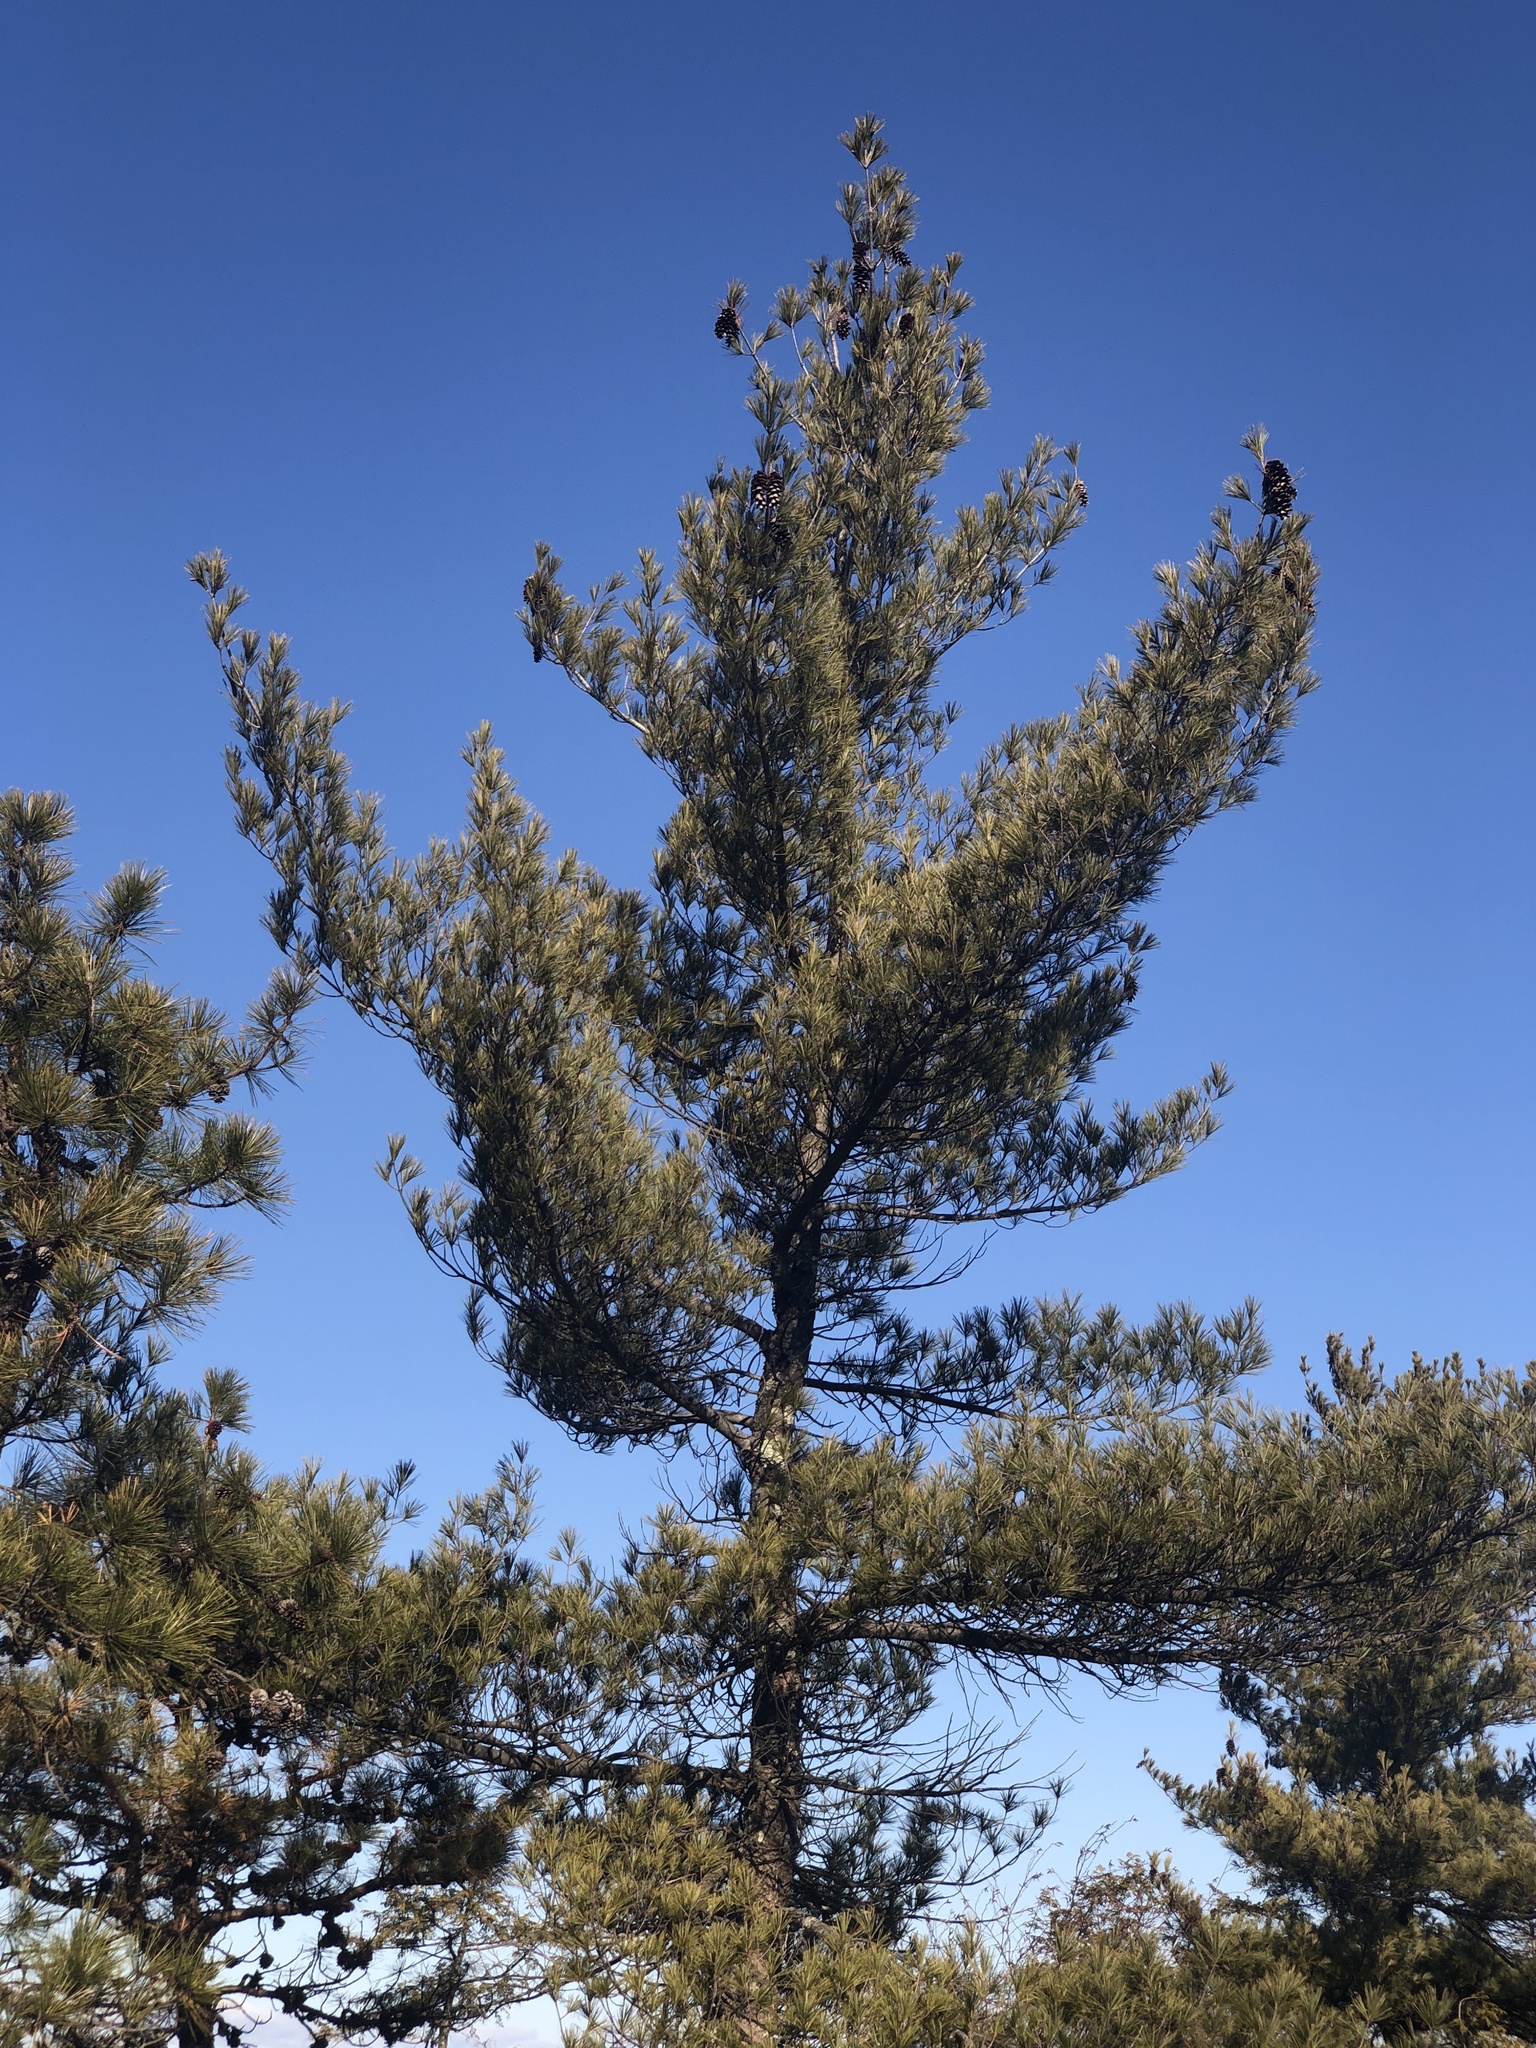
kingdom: Plantae
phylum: Tracheophyta
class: Pinopsida
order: Pinales
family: Pinaceae
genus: Pinus
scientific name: Pinus strobus
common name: Weymouth pine
